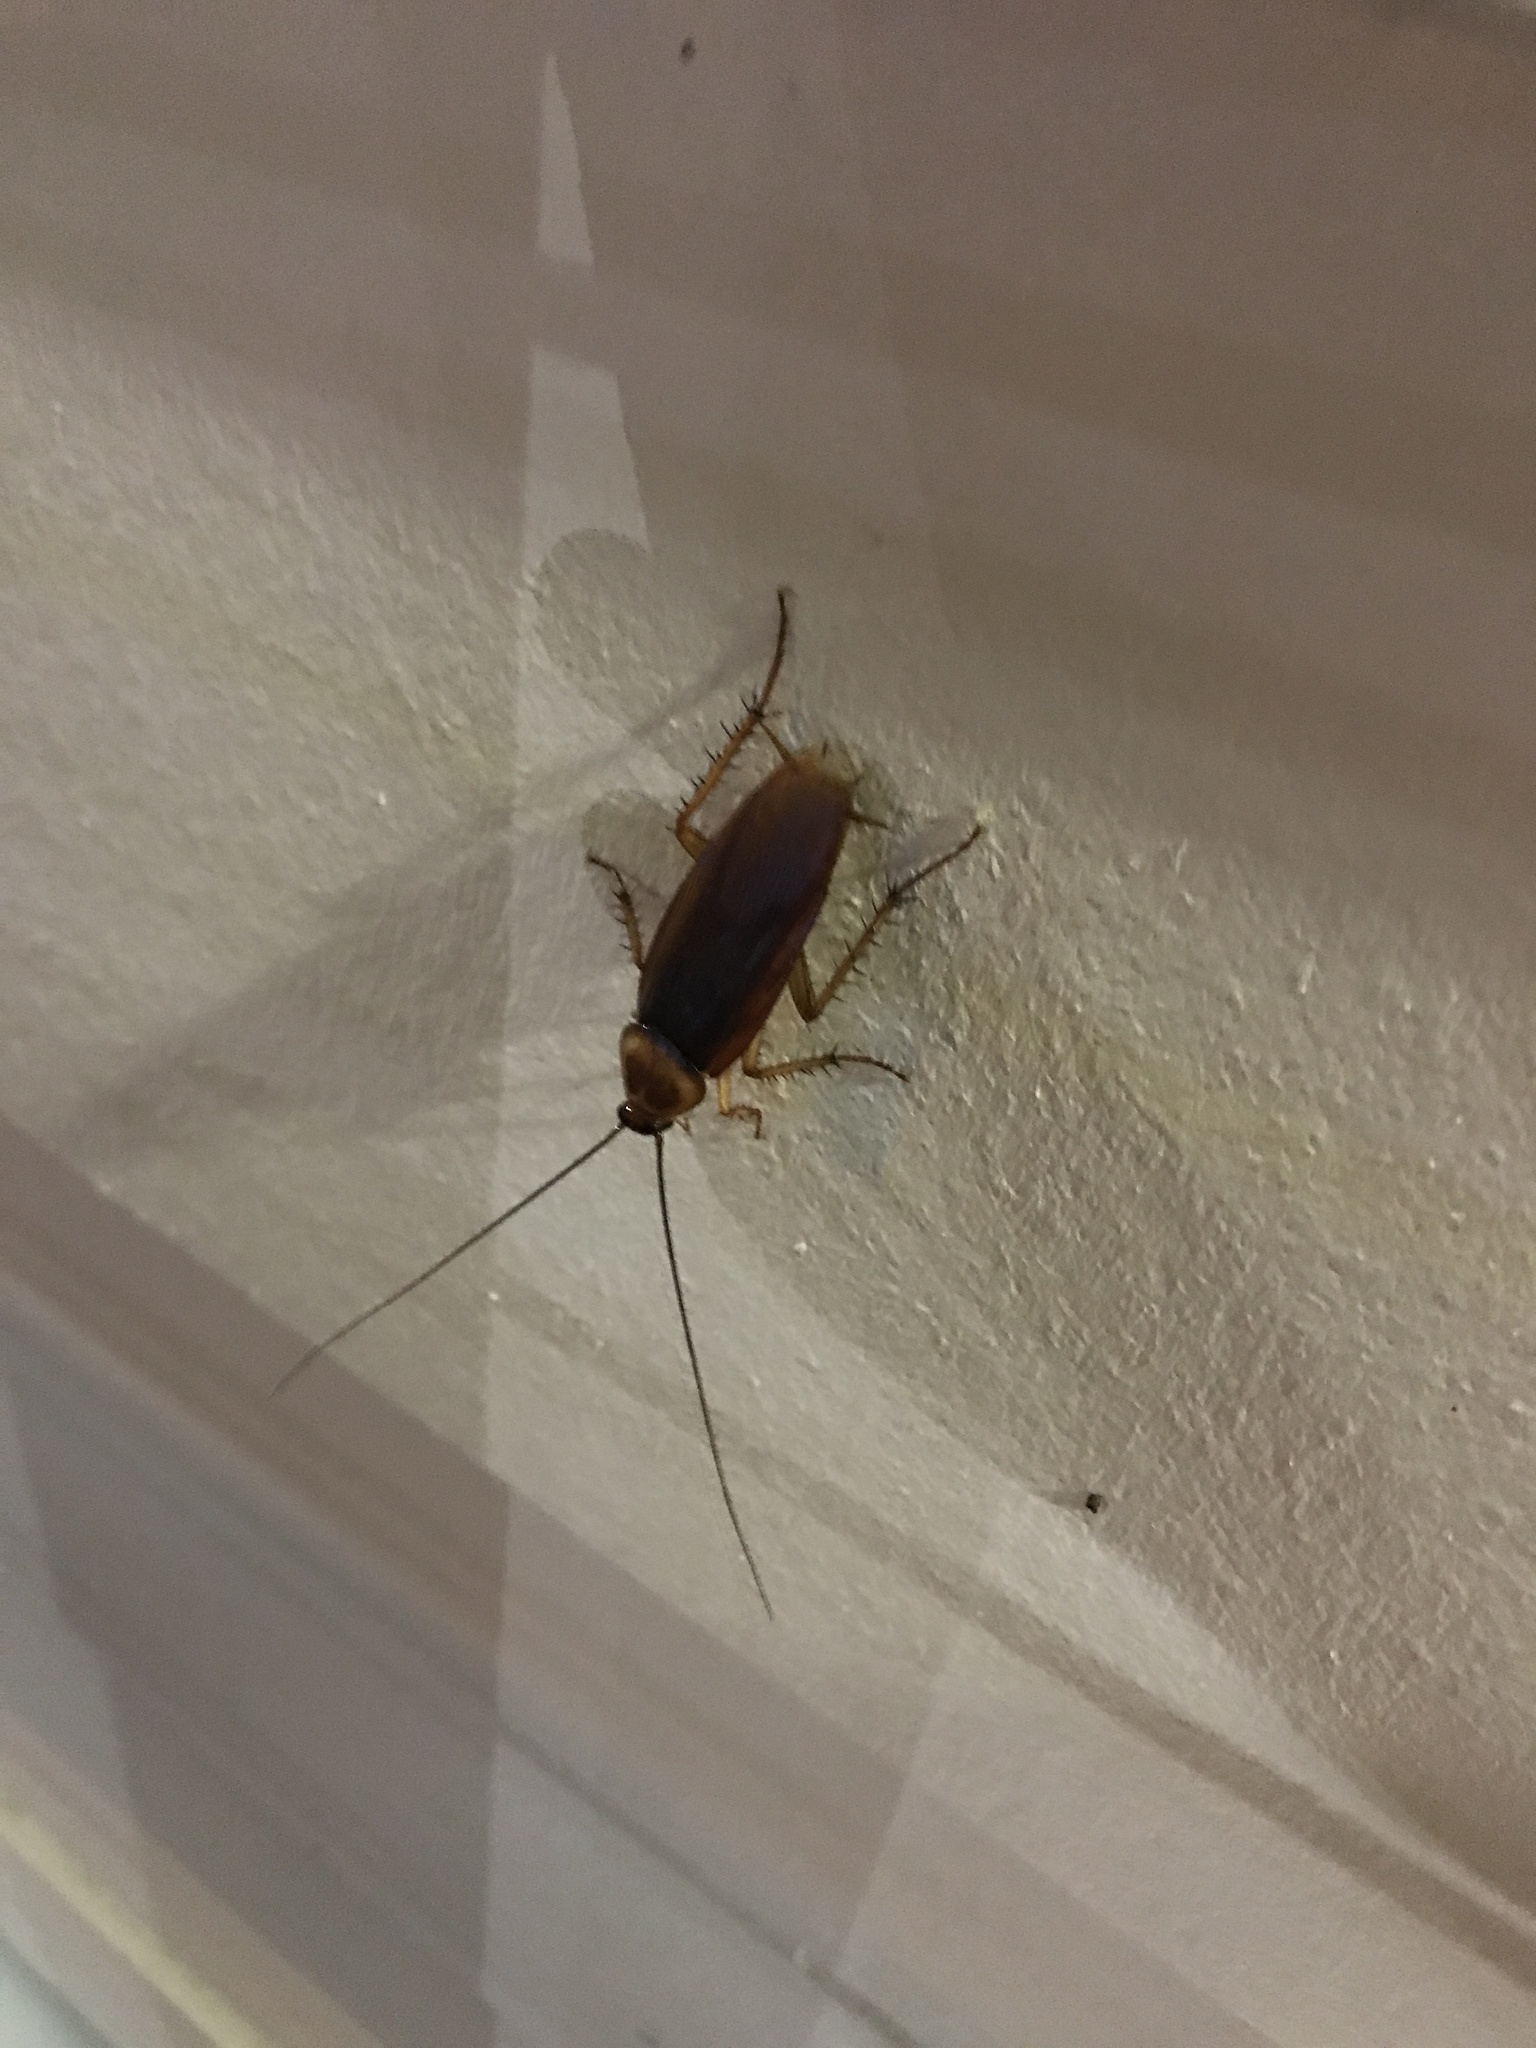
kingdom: Animalia
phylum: Arthropoda
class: Insecta
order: Blattodea
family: Blattidae
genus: Periplaneta
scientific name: Periplaneta americana
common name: American cockroach
